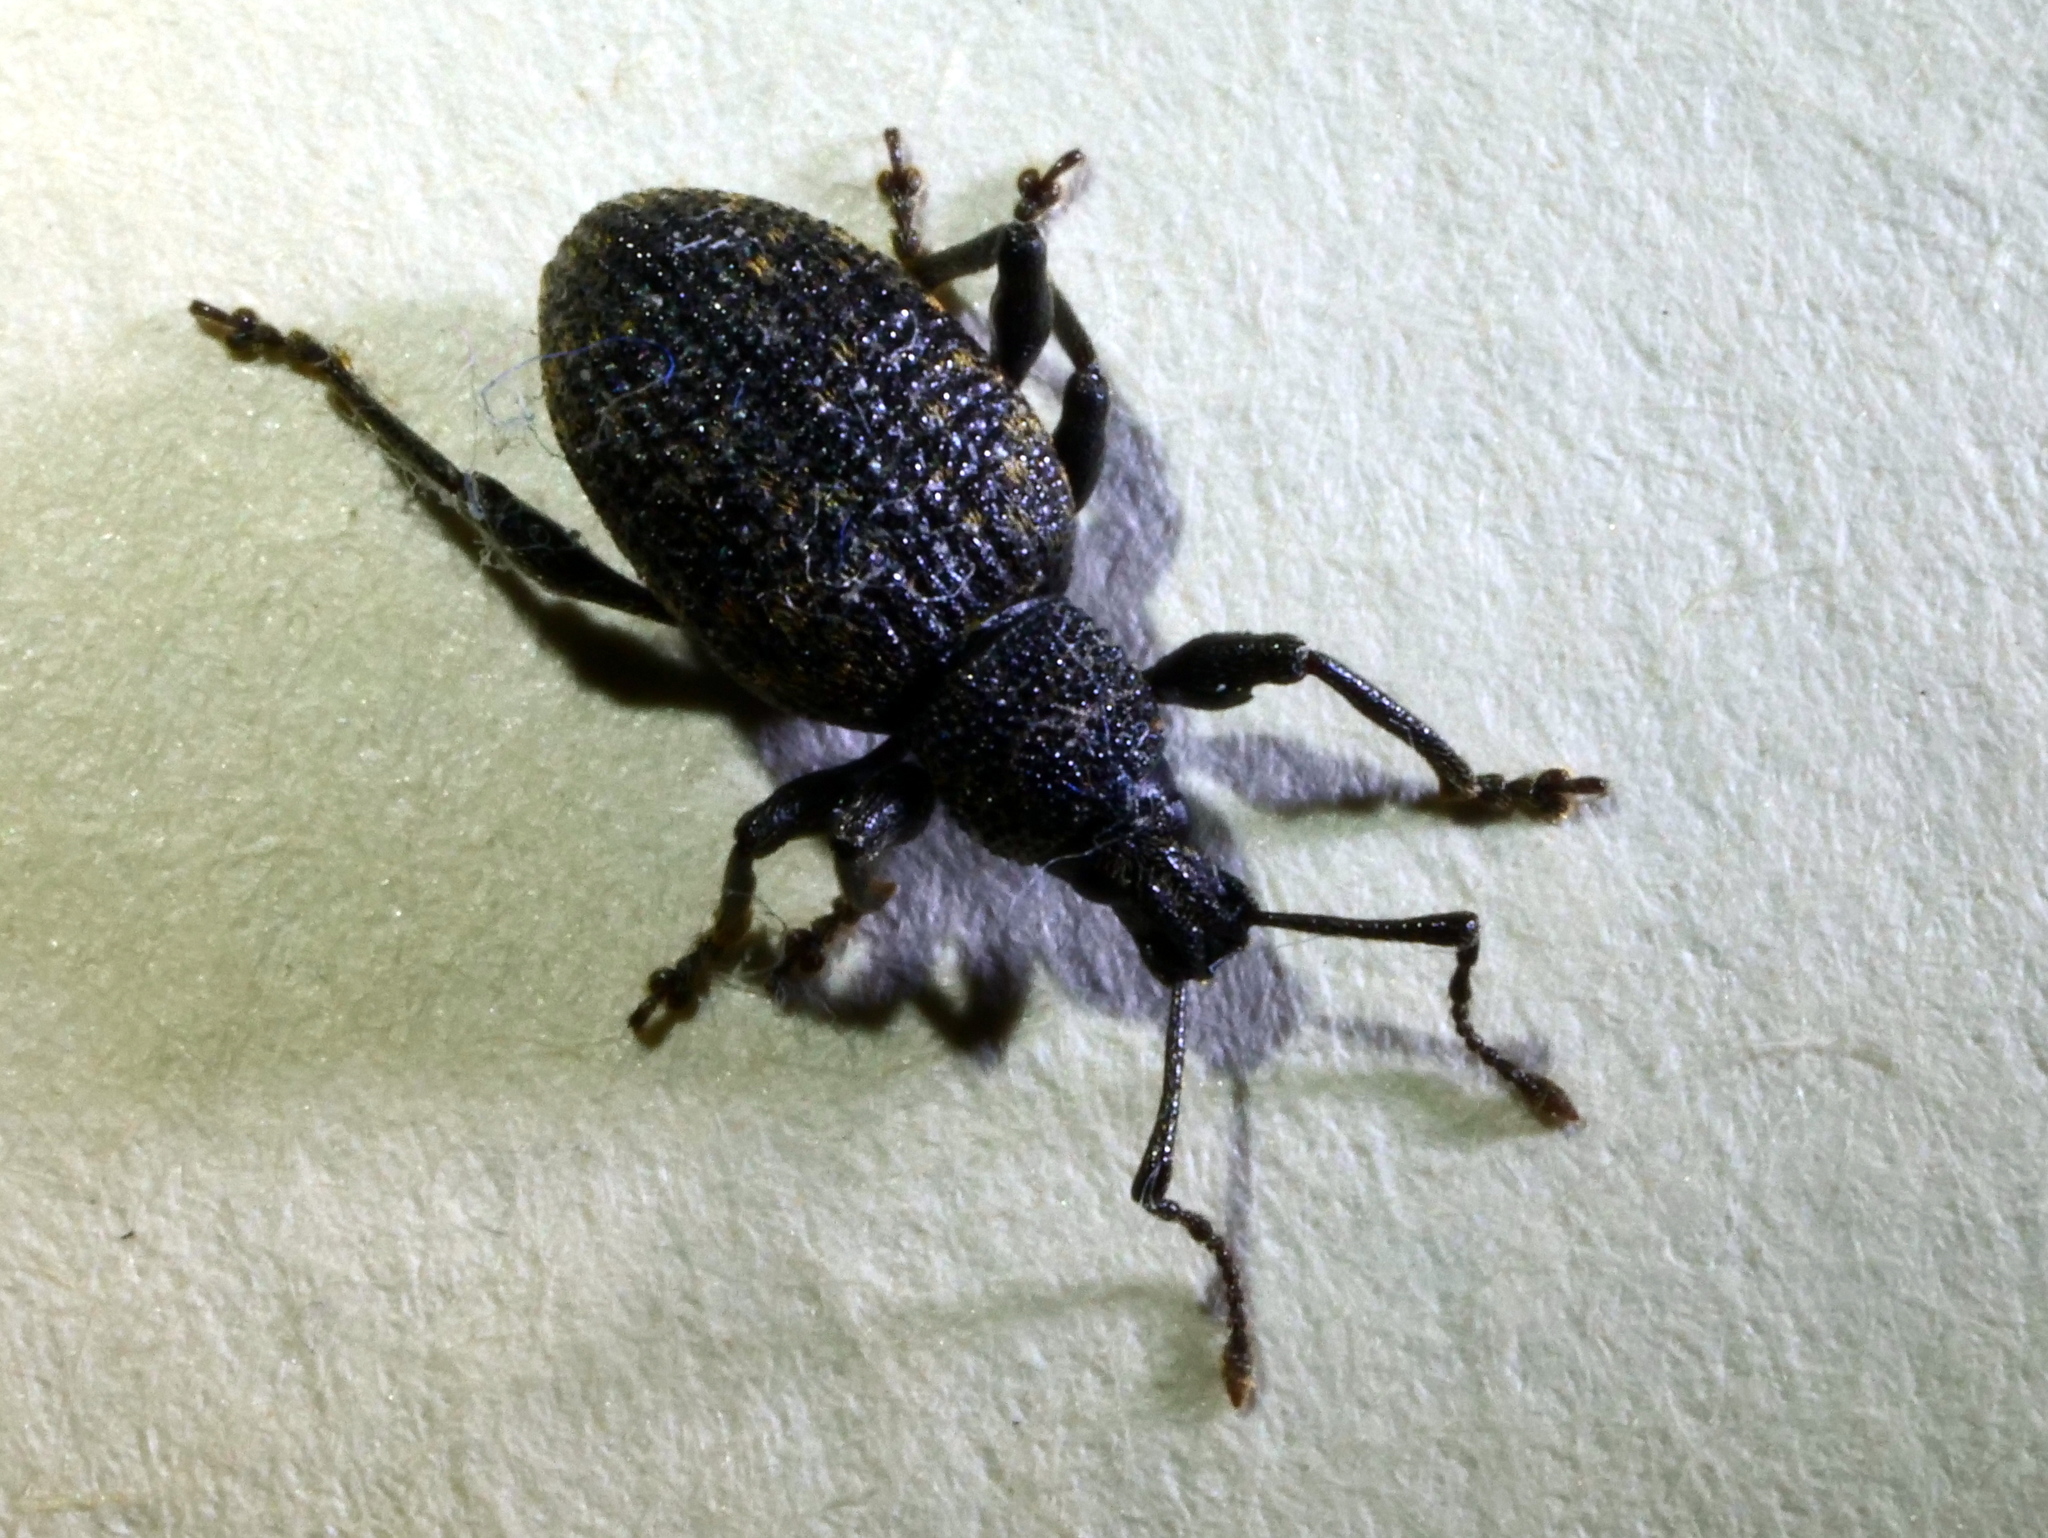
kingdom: Animalia
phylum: Arthropoda
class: Insecta
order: Coleoptera
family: Curculionidae
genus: Otiorhynchus
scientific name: Otiorhynchus sulcatus
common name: Black vine weevil
